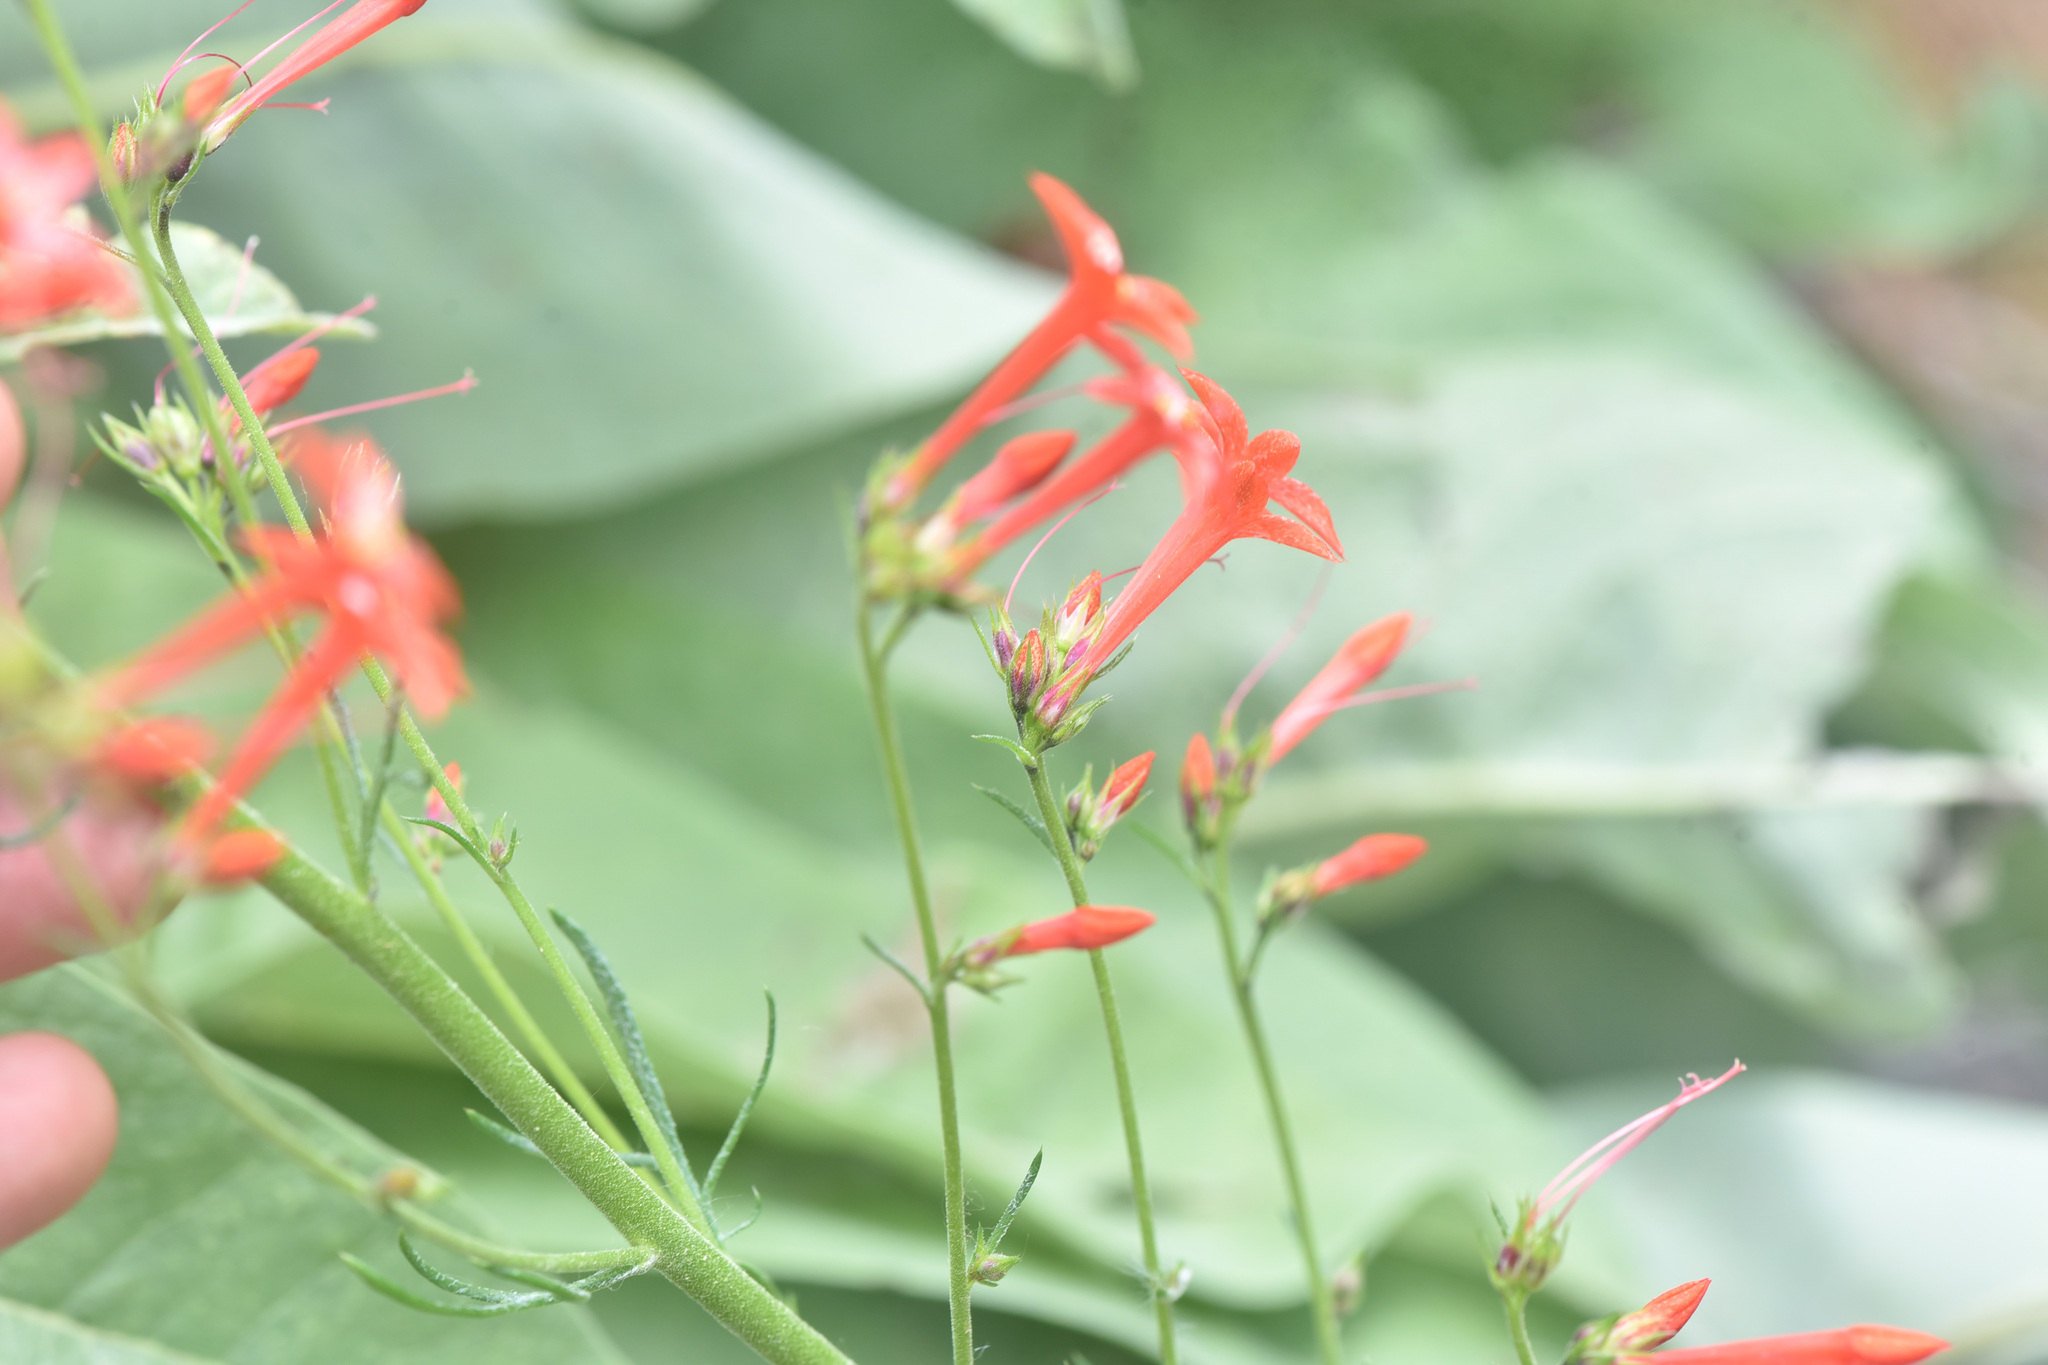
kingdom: Plantae
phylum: Tracheophyta
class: Magnoliopsida
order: Ericales
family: Polemoniaceae
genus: Ipomopsis
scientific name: Ipomopsis aggregata
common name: Scarlet gilia
